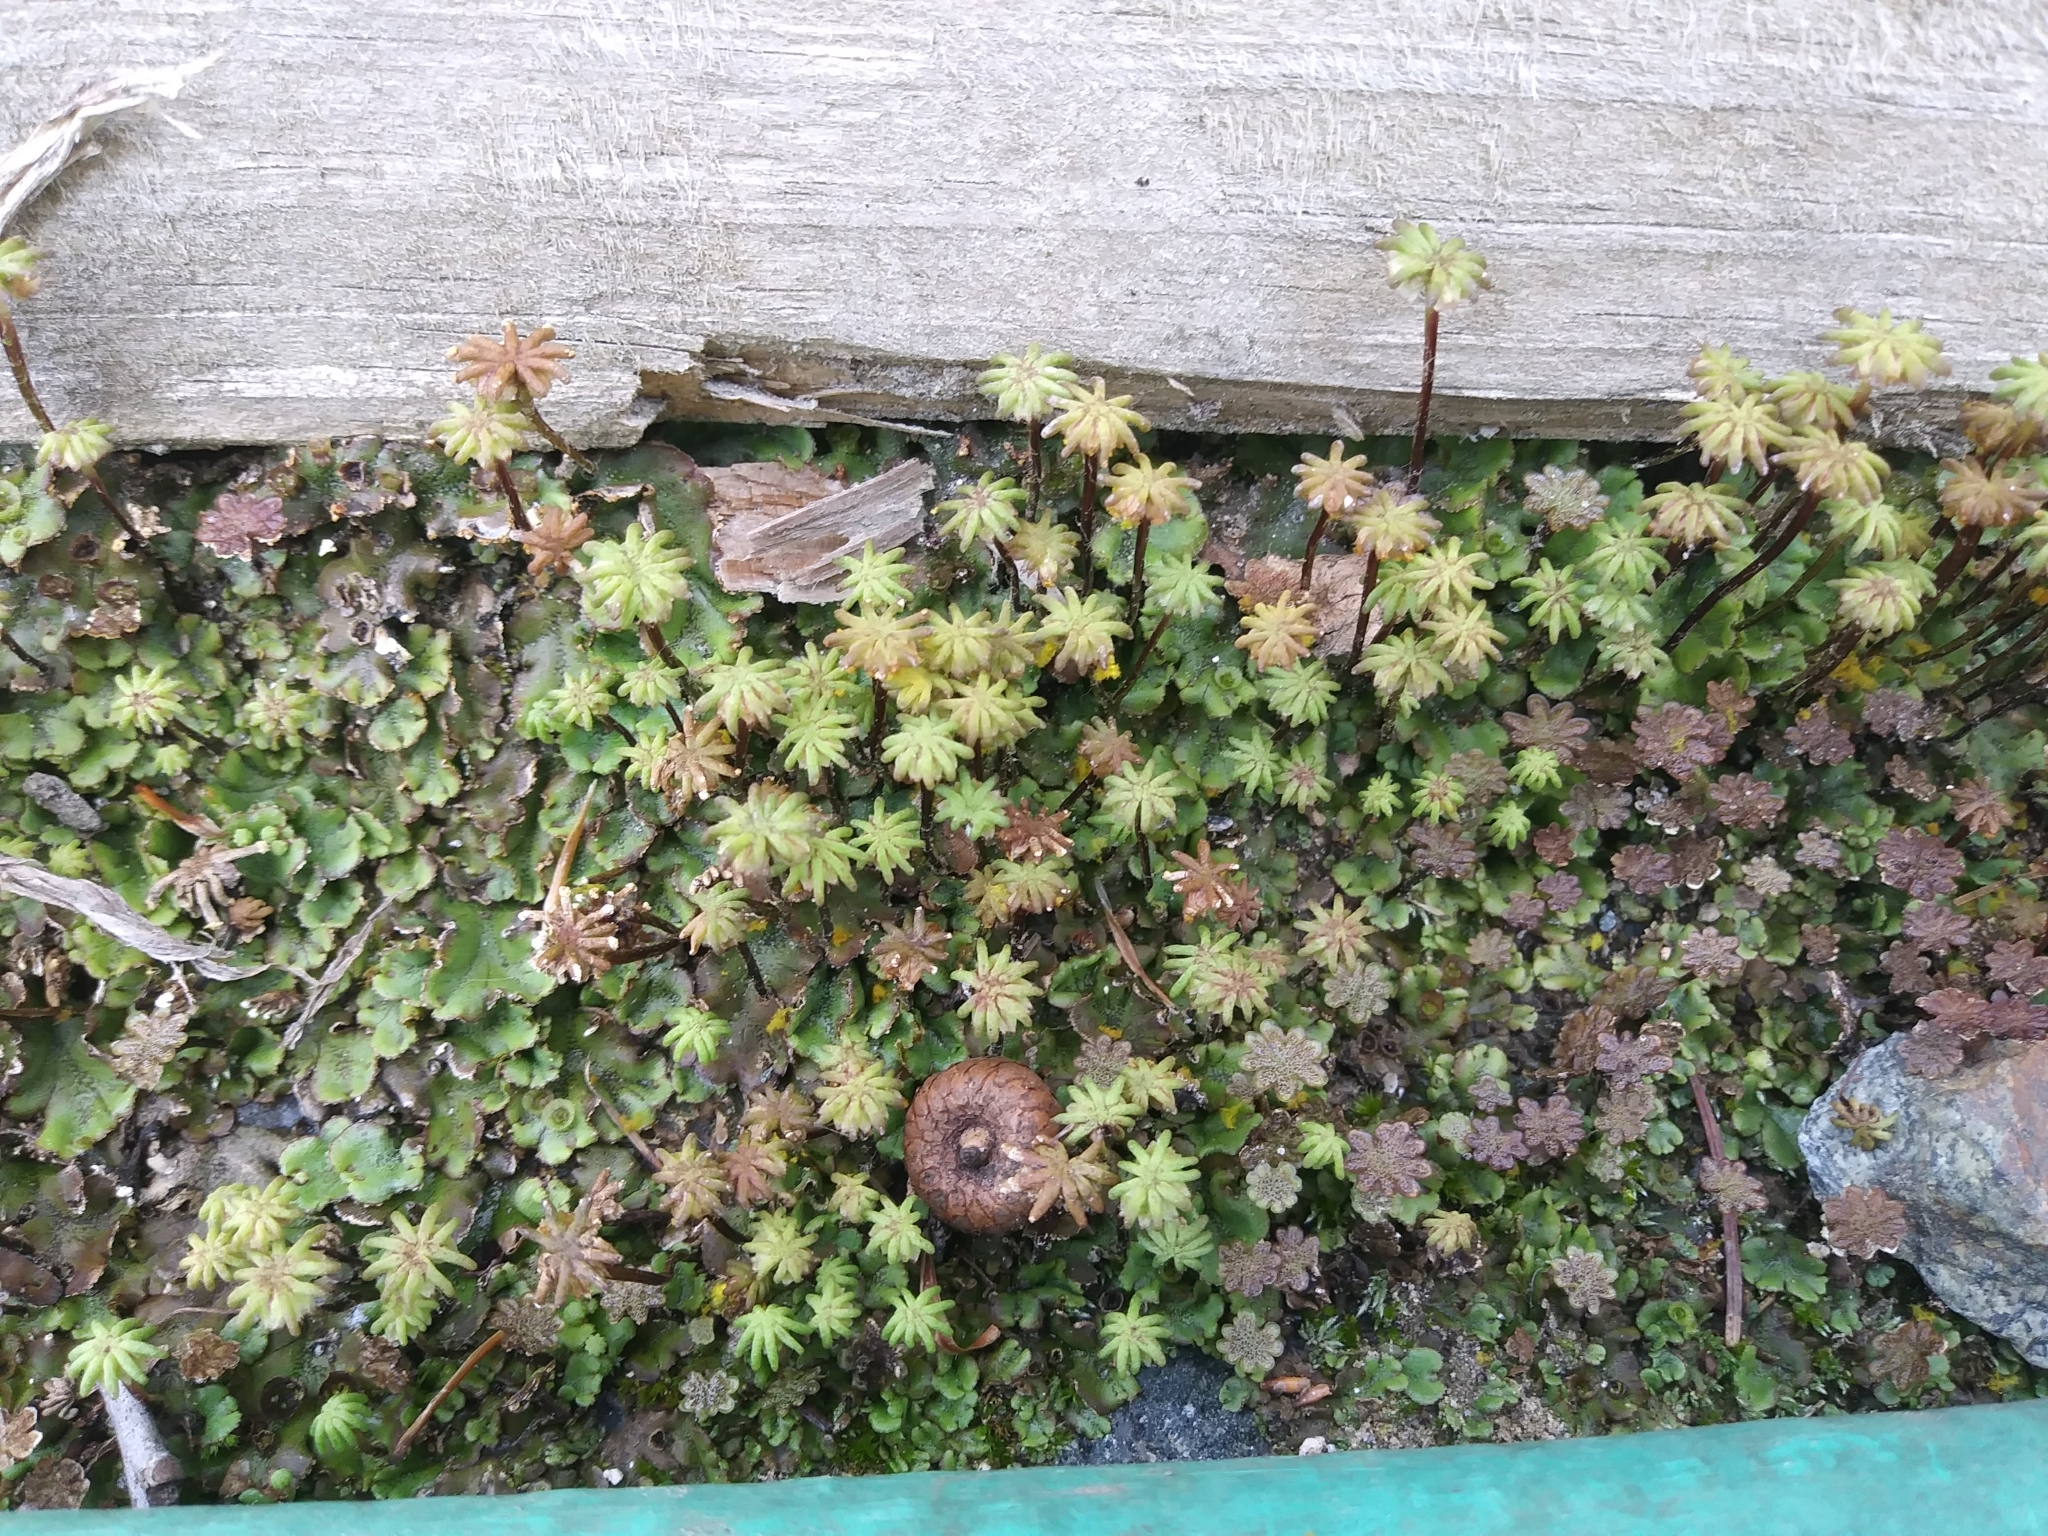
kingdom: Plantae
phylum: Marchantiophyta
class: Marchantiopsida
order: Marchantiales
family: Marchantiaceae
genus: Marchantia
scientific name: Marchantia polymorpha
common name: Common liverwort
